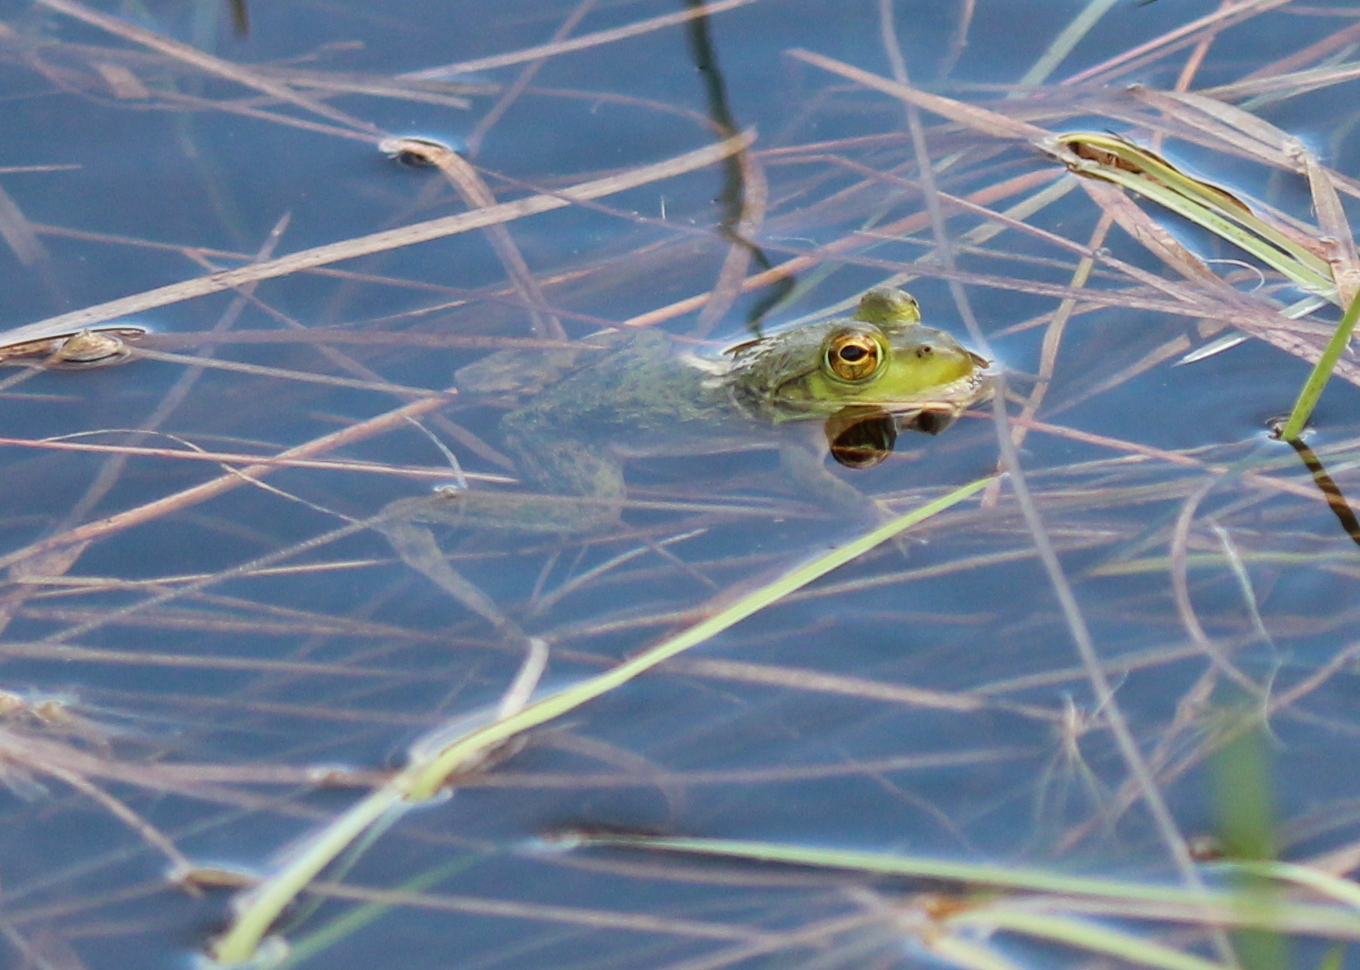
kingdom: Animalia
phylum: Chordata
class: Amphibia
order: Anura
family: Ranidae
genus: Lithobates
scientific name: Lithobates catesbeianus
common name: American bullfrog
